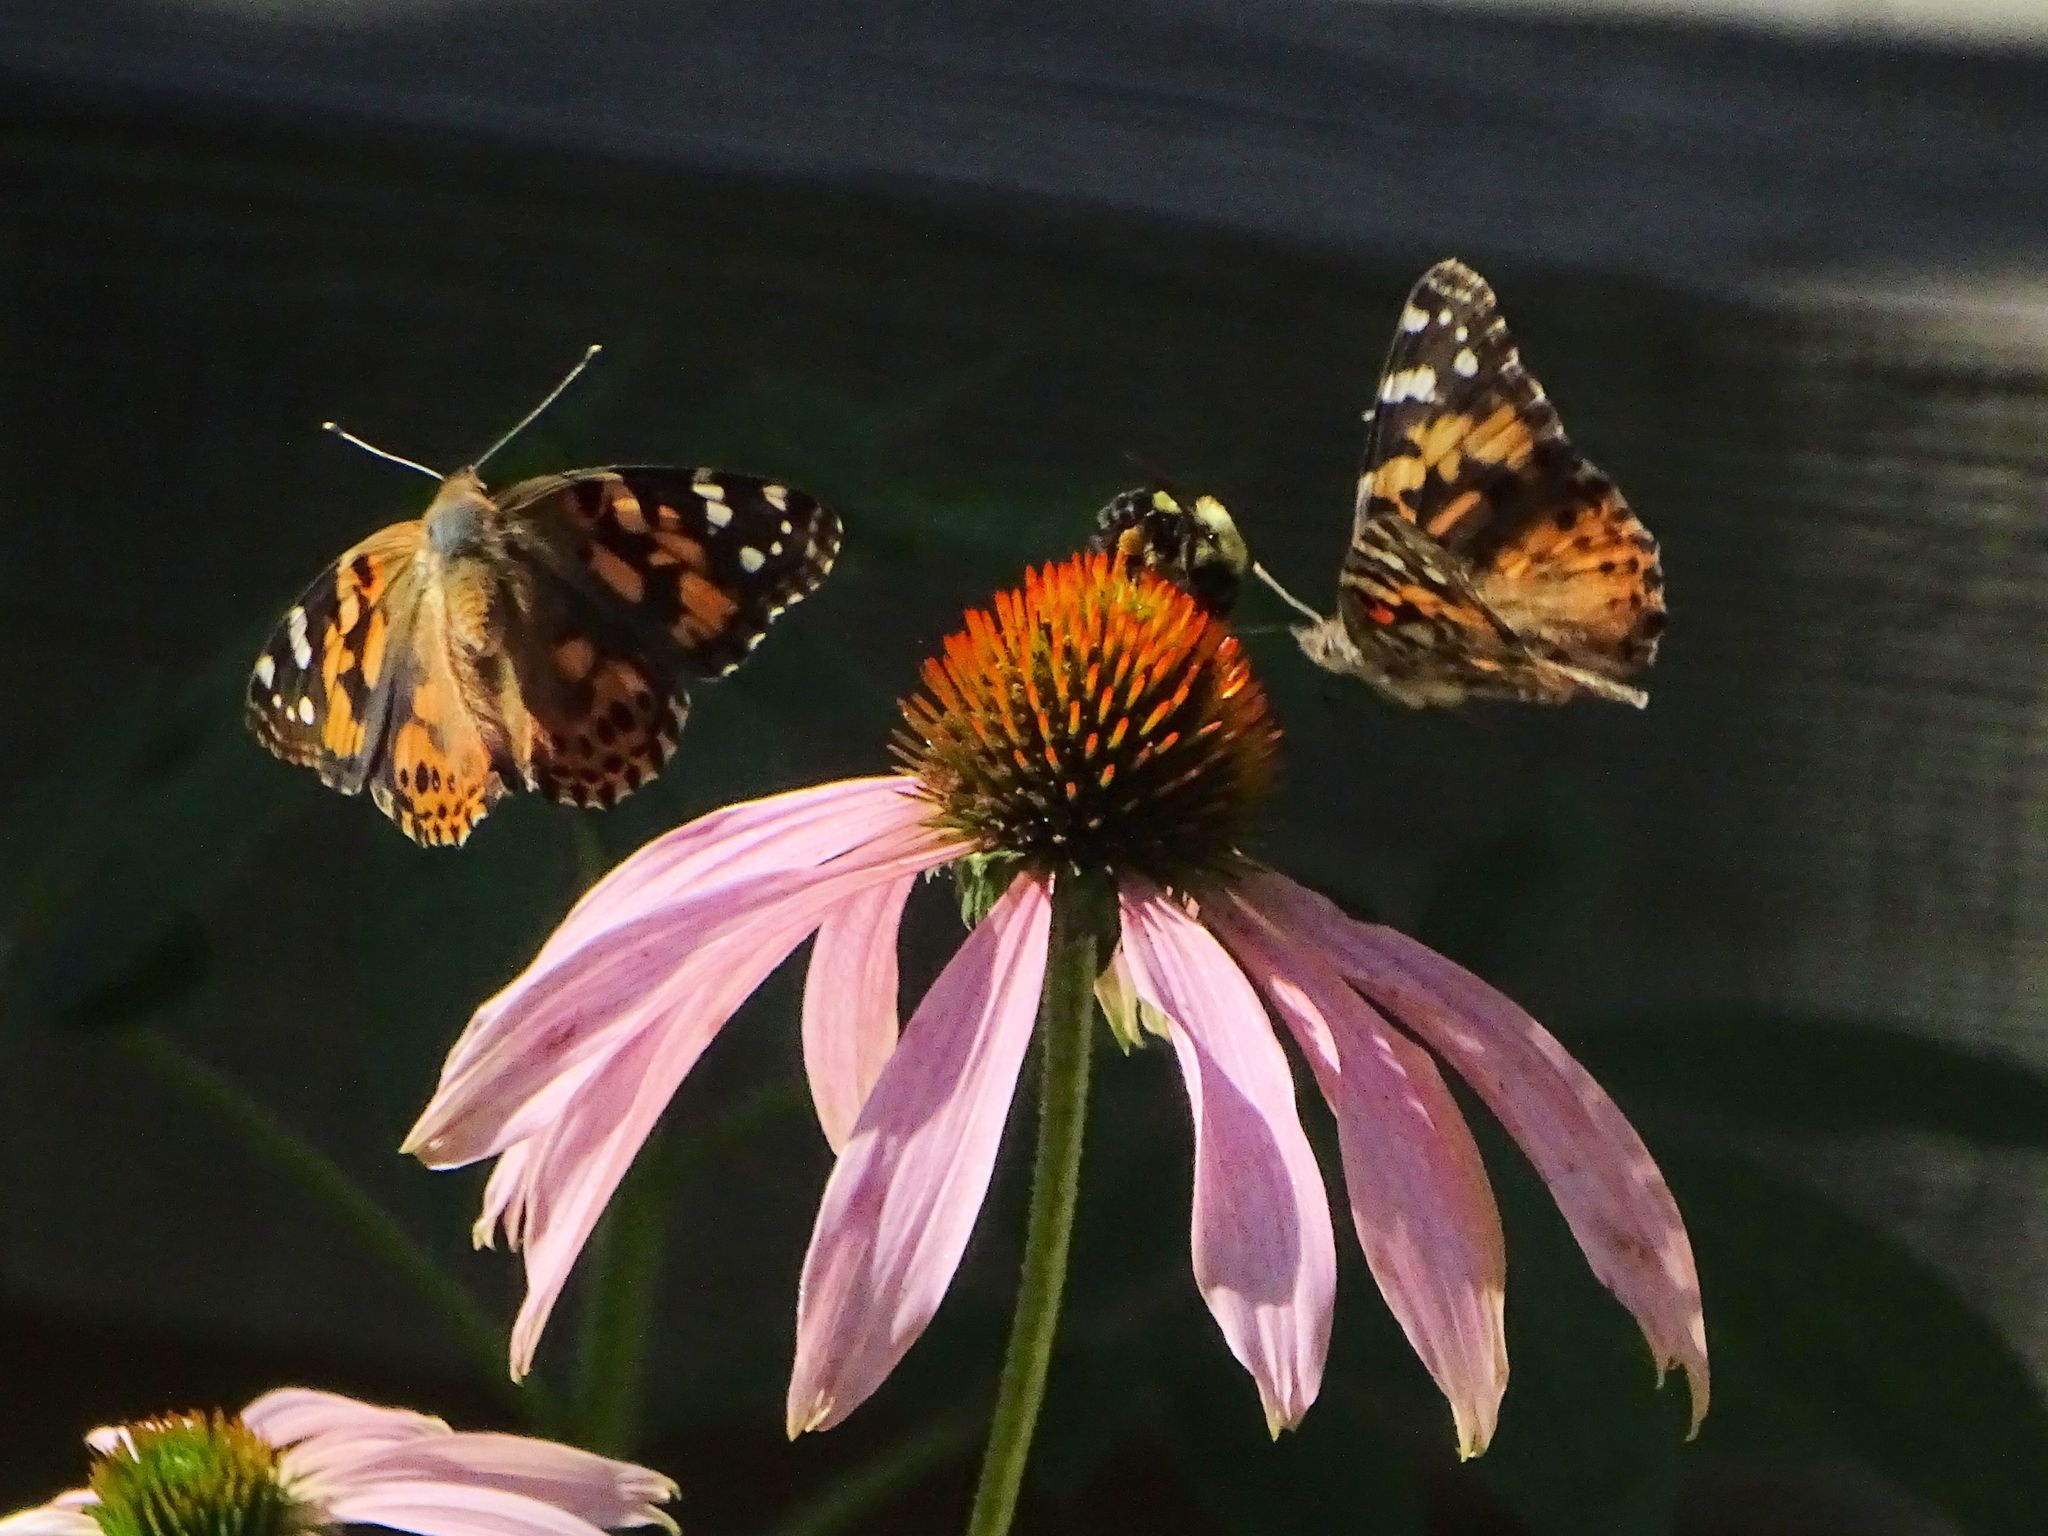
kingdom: Animalia
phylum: Arthropoda
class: Insecta
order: Lepidoptera
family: Nymphalidae
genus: Vanessa
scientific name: Vanessa cardui
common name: Painted lady
